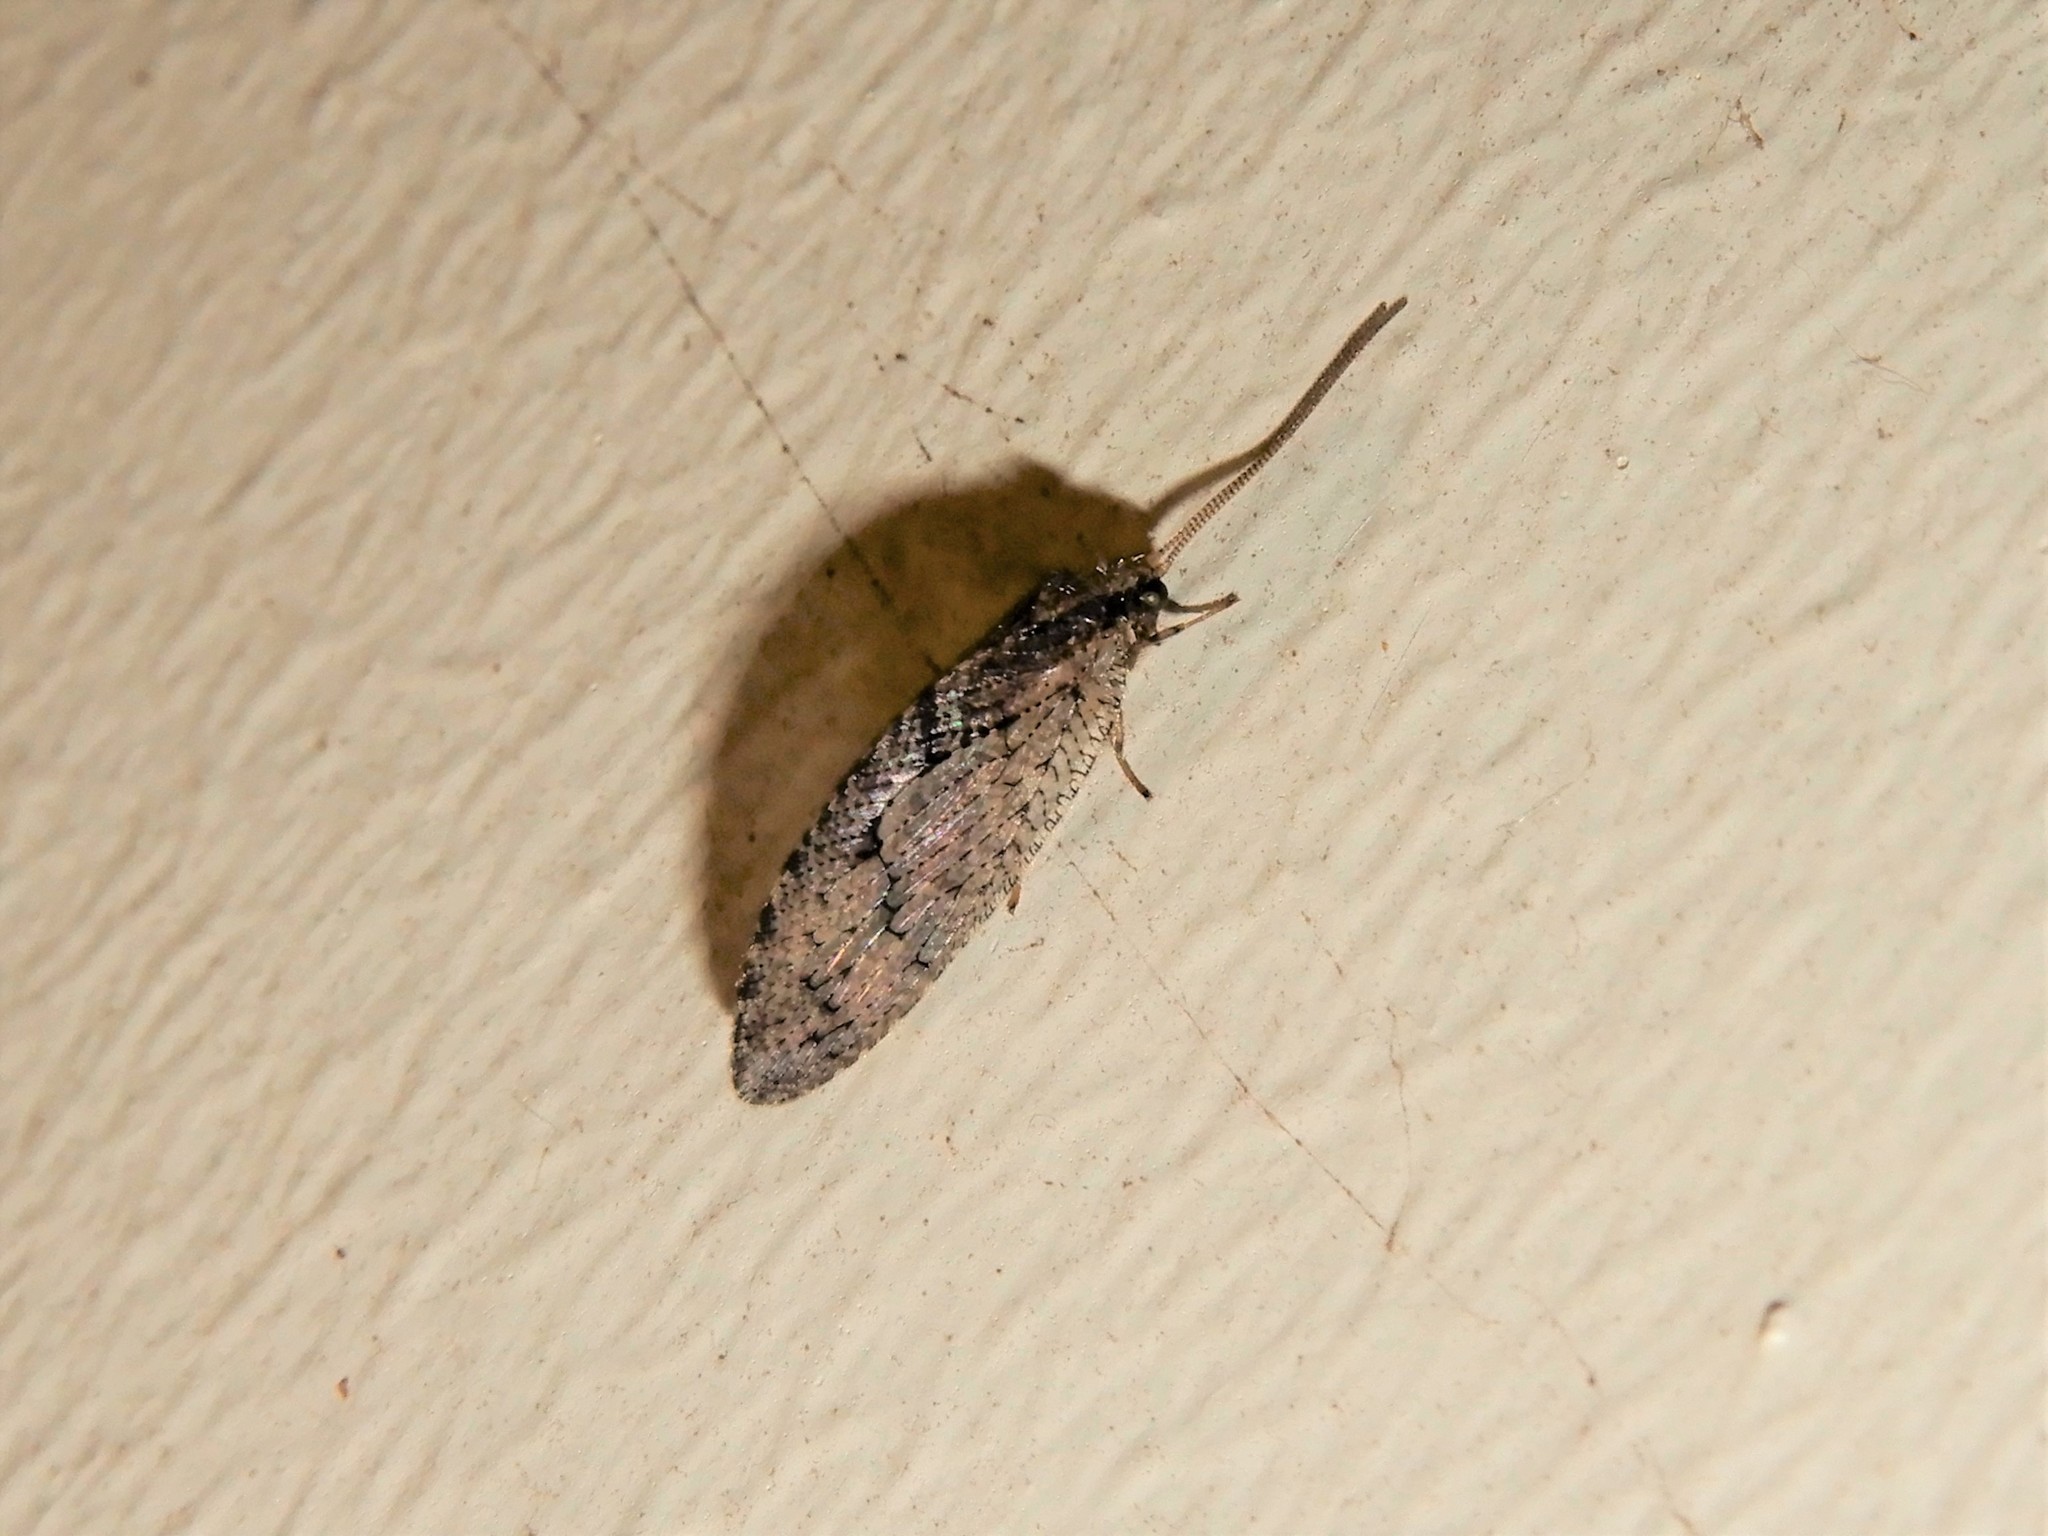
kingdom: Animalia
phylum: Arthropoda
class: Insecta
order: Neuroptera
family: Hemerobiidae
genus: Wesmaelius
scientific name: Wesmaelius subnebulosus
